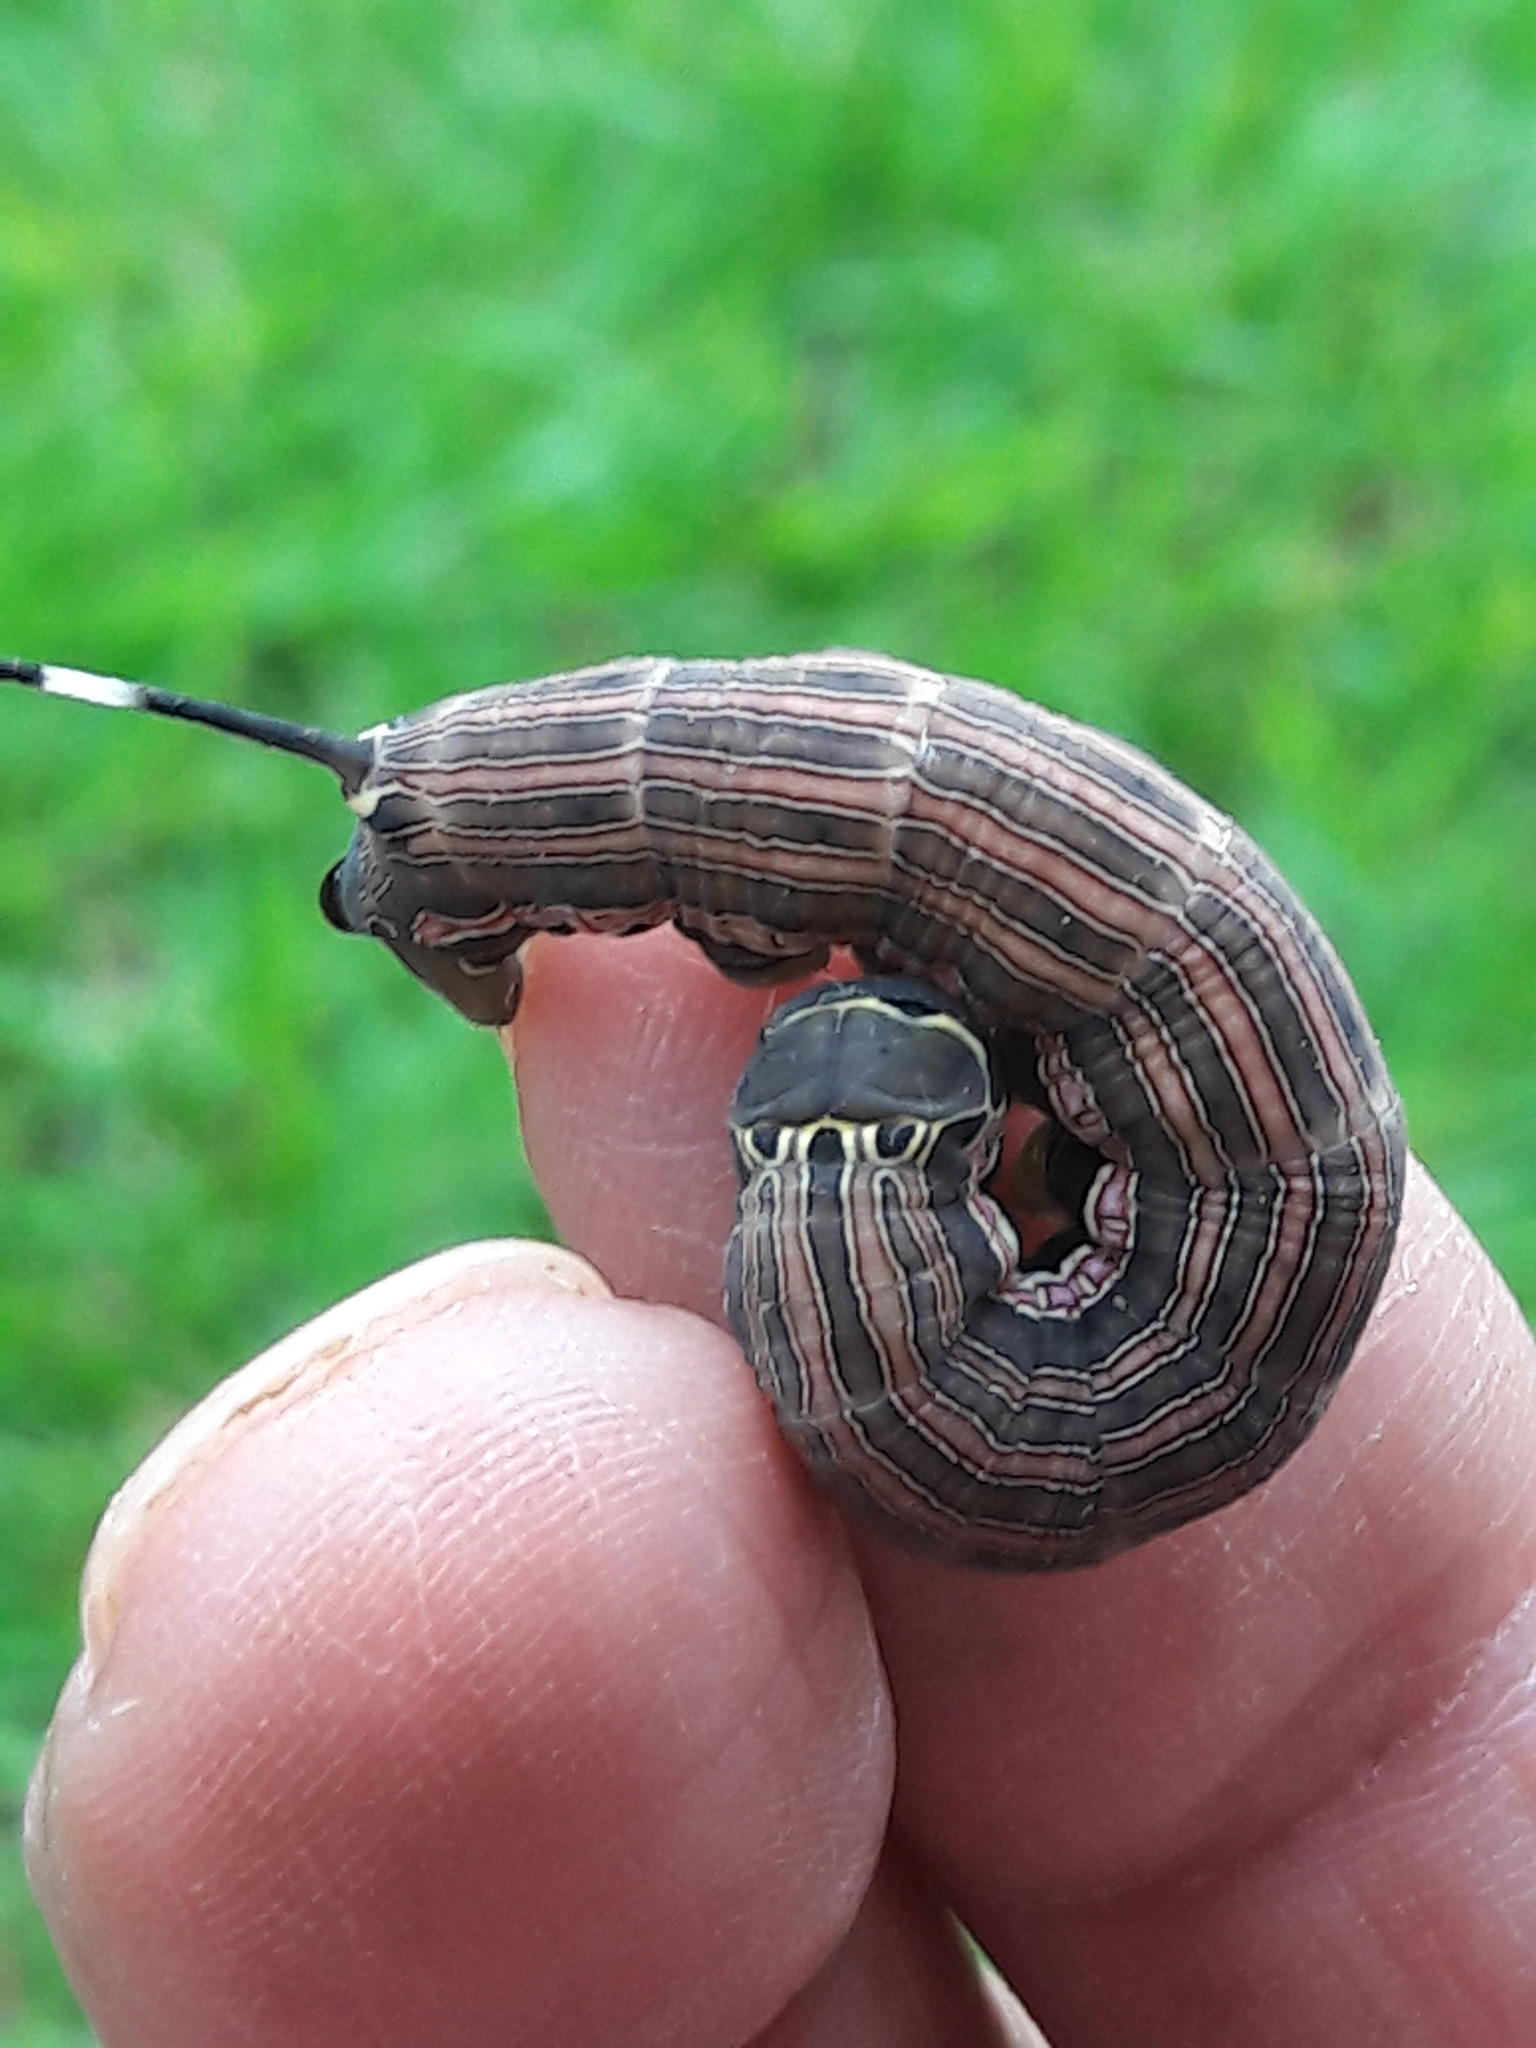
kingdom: Animalia
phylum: Arthropoda
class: Insecta
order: Lepidoptera
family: Sphingidae
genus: Isognathus
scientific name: Isognathus allamandae
